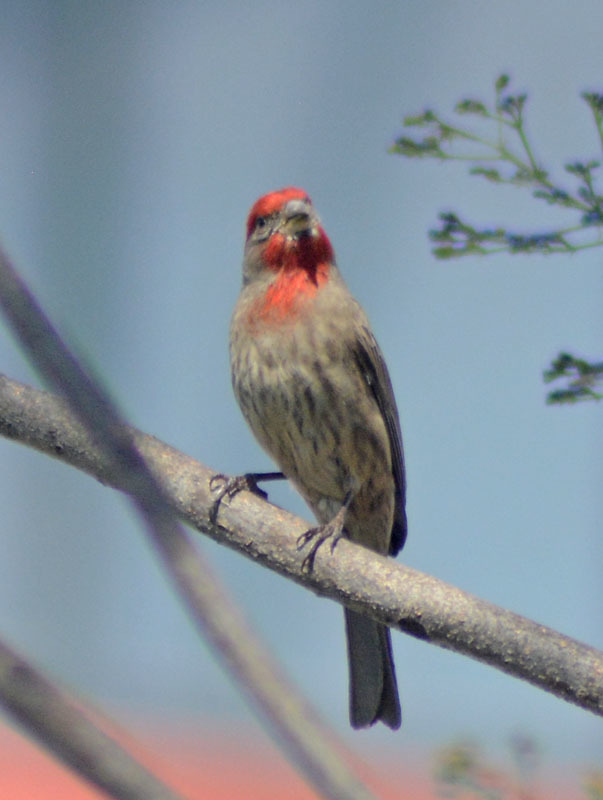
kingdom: Animalia
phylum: Chordata
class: Aves
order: Passeriformes
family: Fringillidae
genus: Haemorhous
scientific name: Haemorhous mexicanus
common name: House finch
